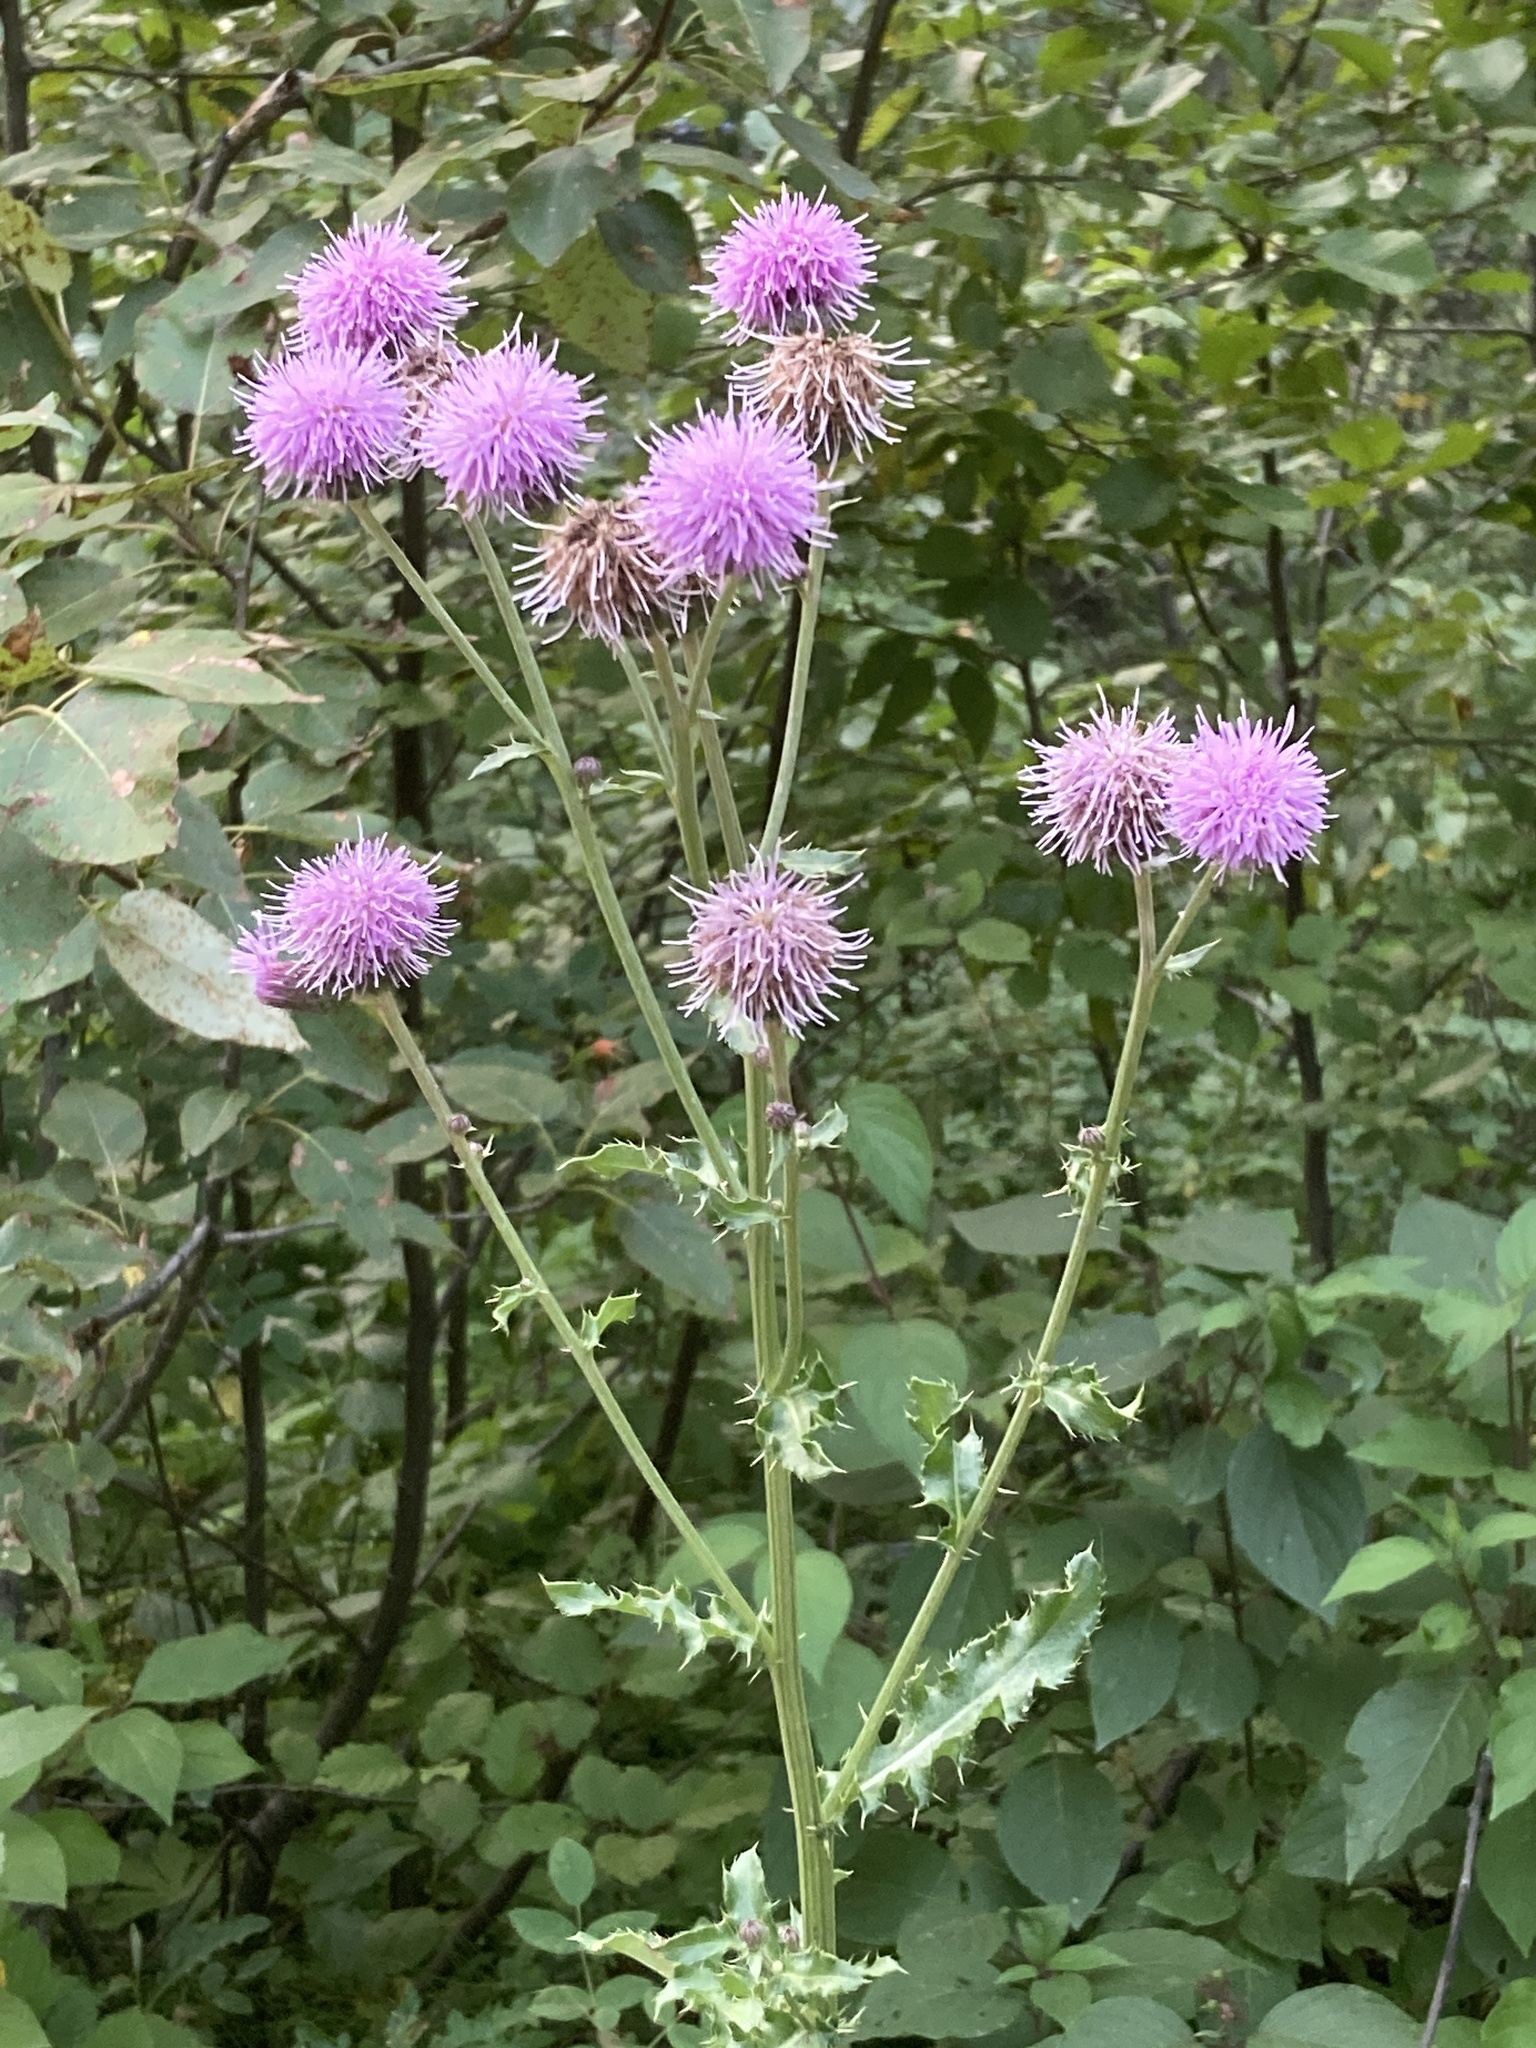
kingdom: Plantae
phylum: Tracheophyta
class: Magnoliopsida
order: Asterales
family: Asteraceae
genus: Cirsium
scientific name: Cirsium arvense
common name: Creeping thistle
